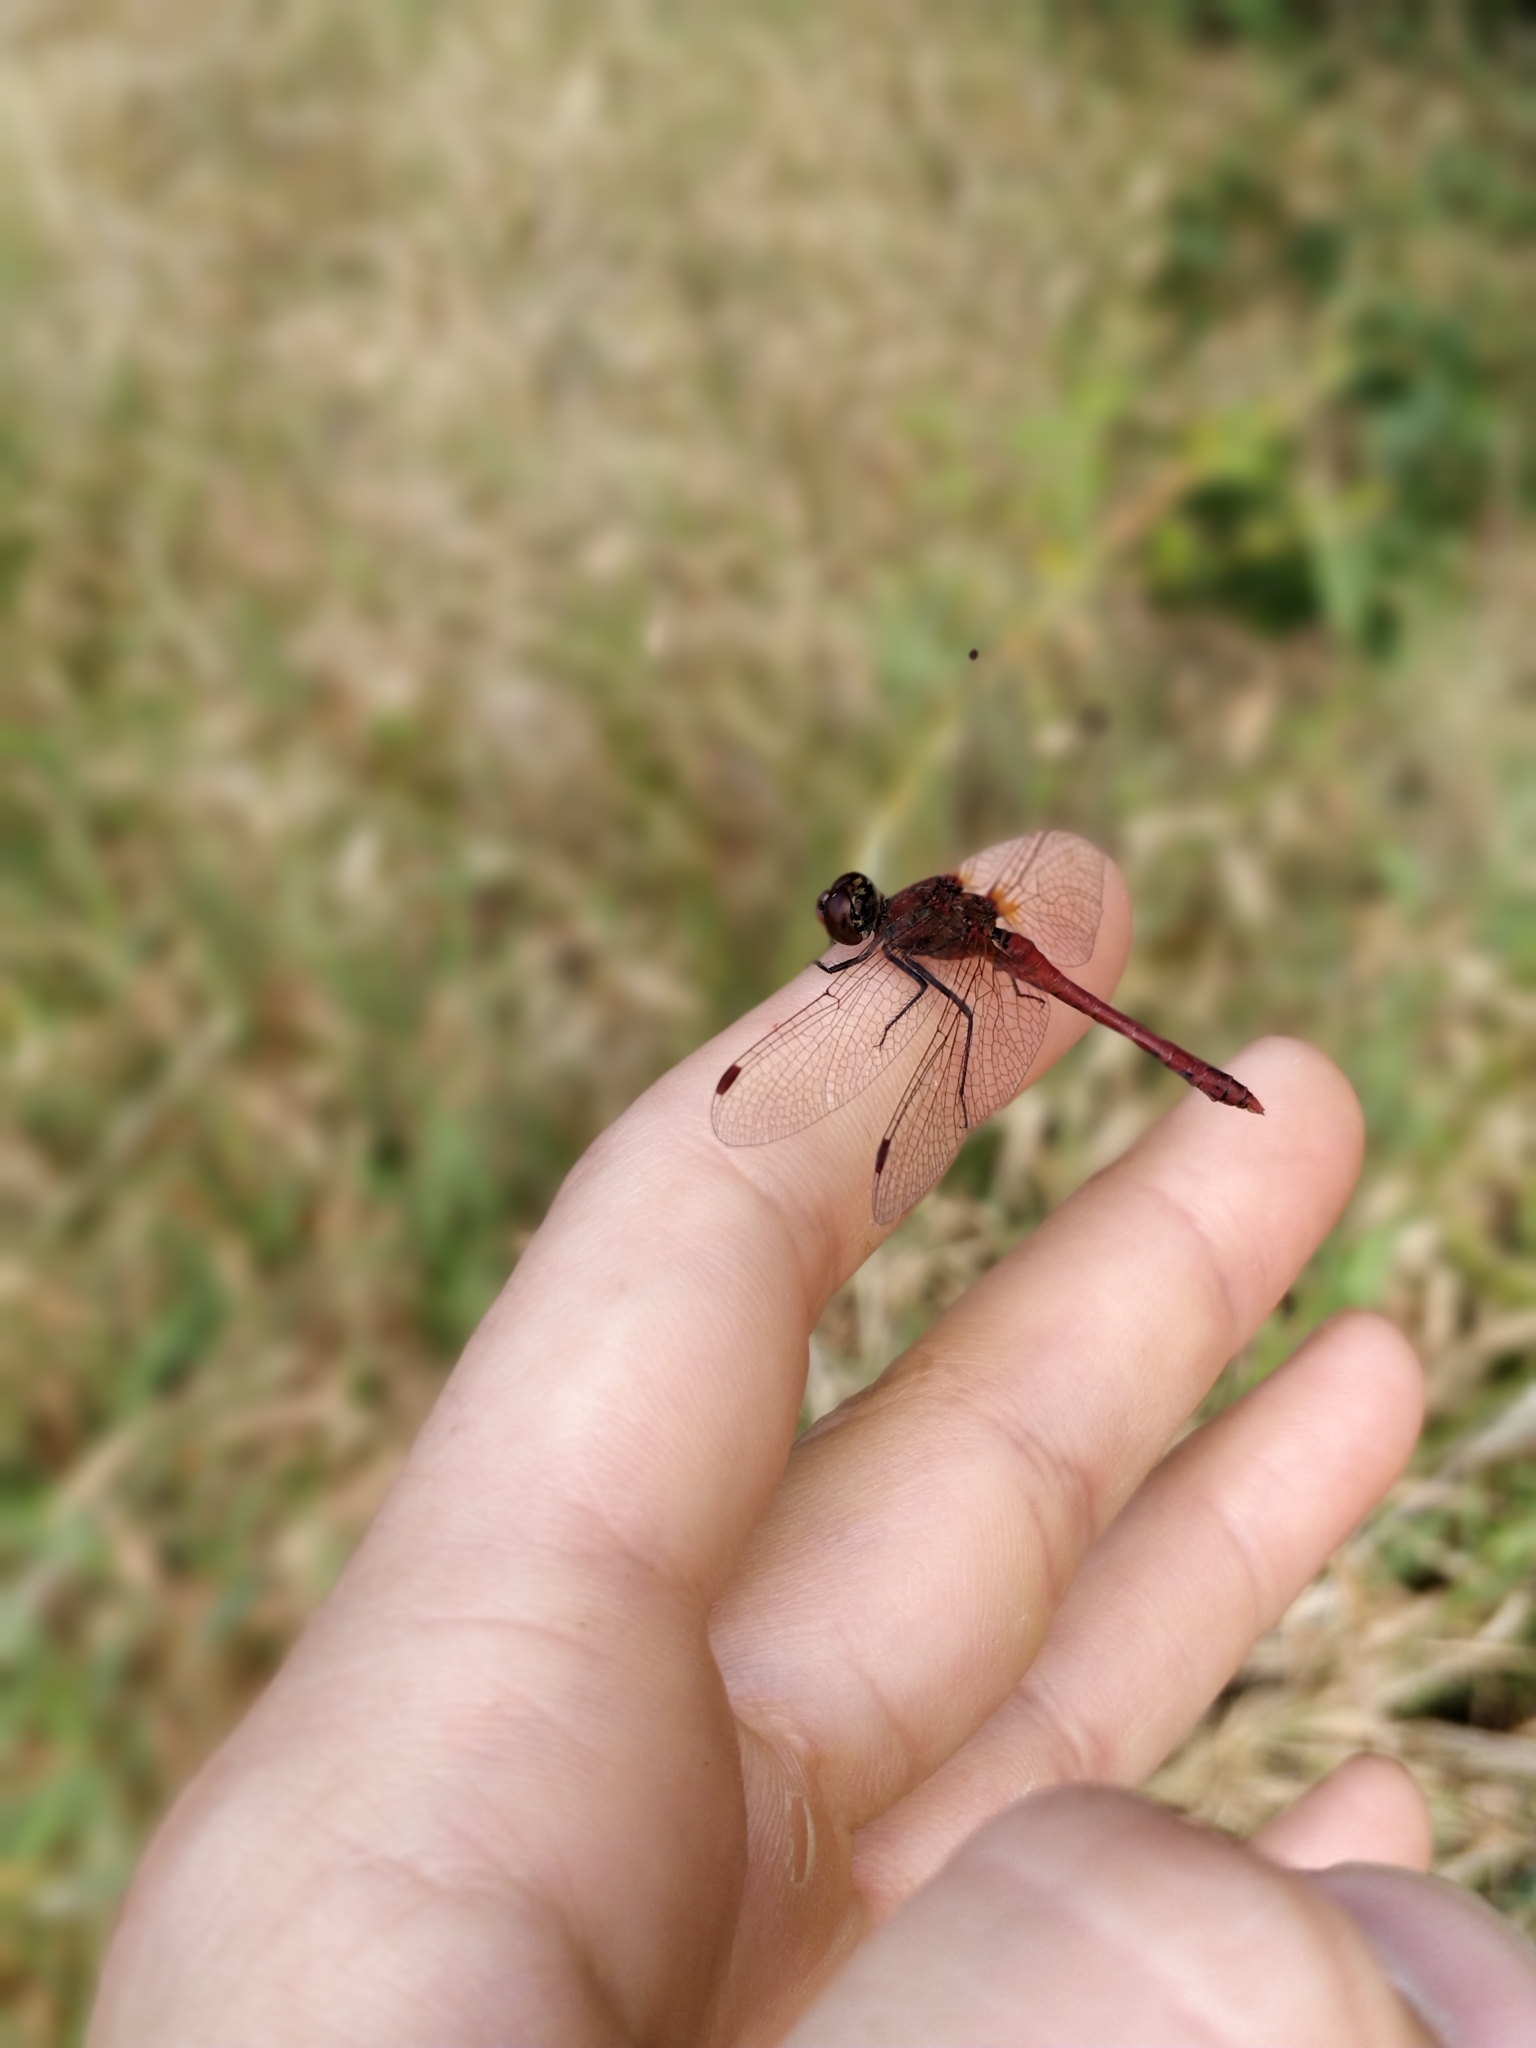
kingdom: Animalia
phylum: Arthropoda
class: Insecta
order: Odonata
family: Libellulidae
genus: Sympetrum
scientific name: Sympetrum sanguineum
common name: Ruddy darter
